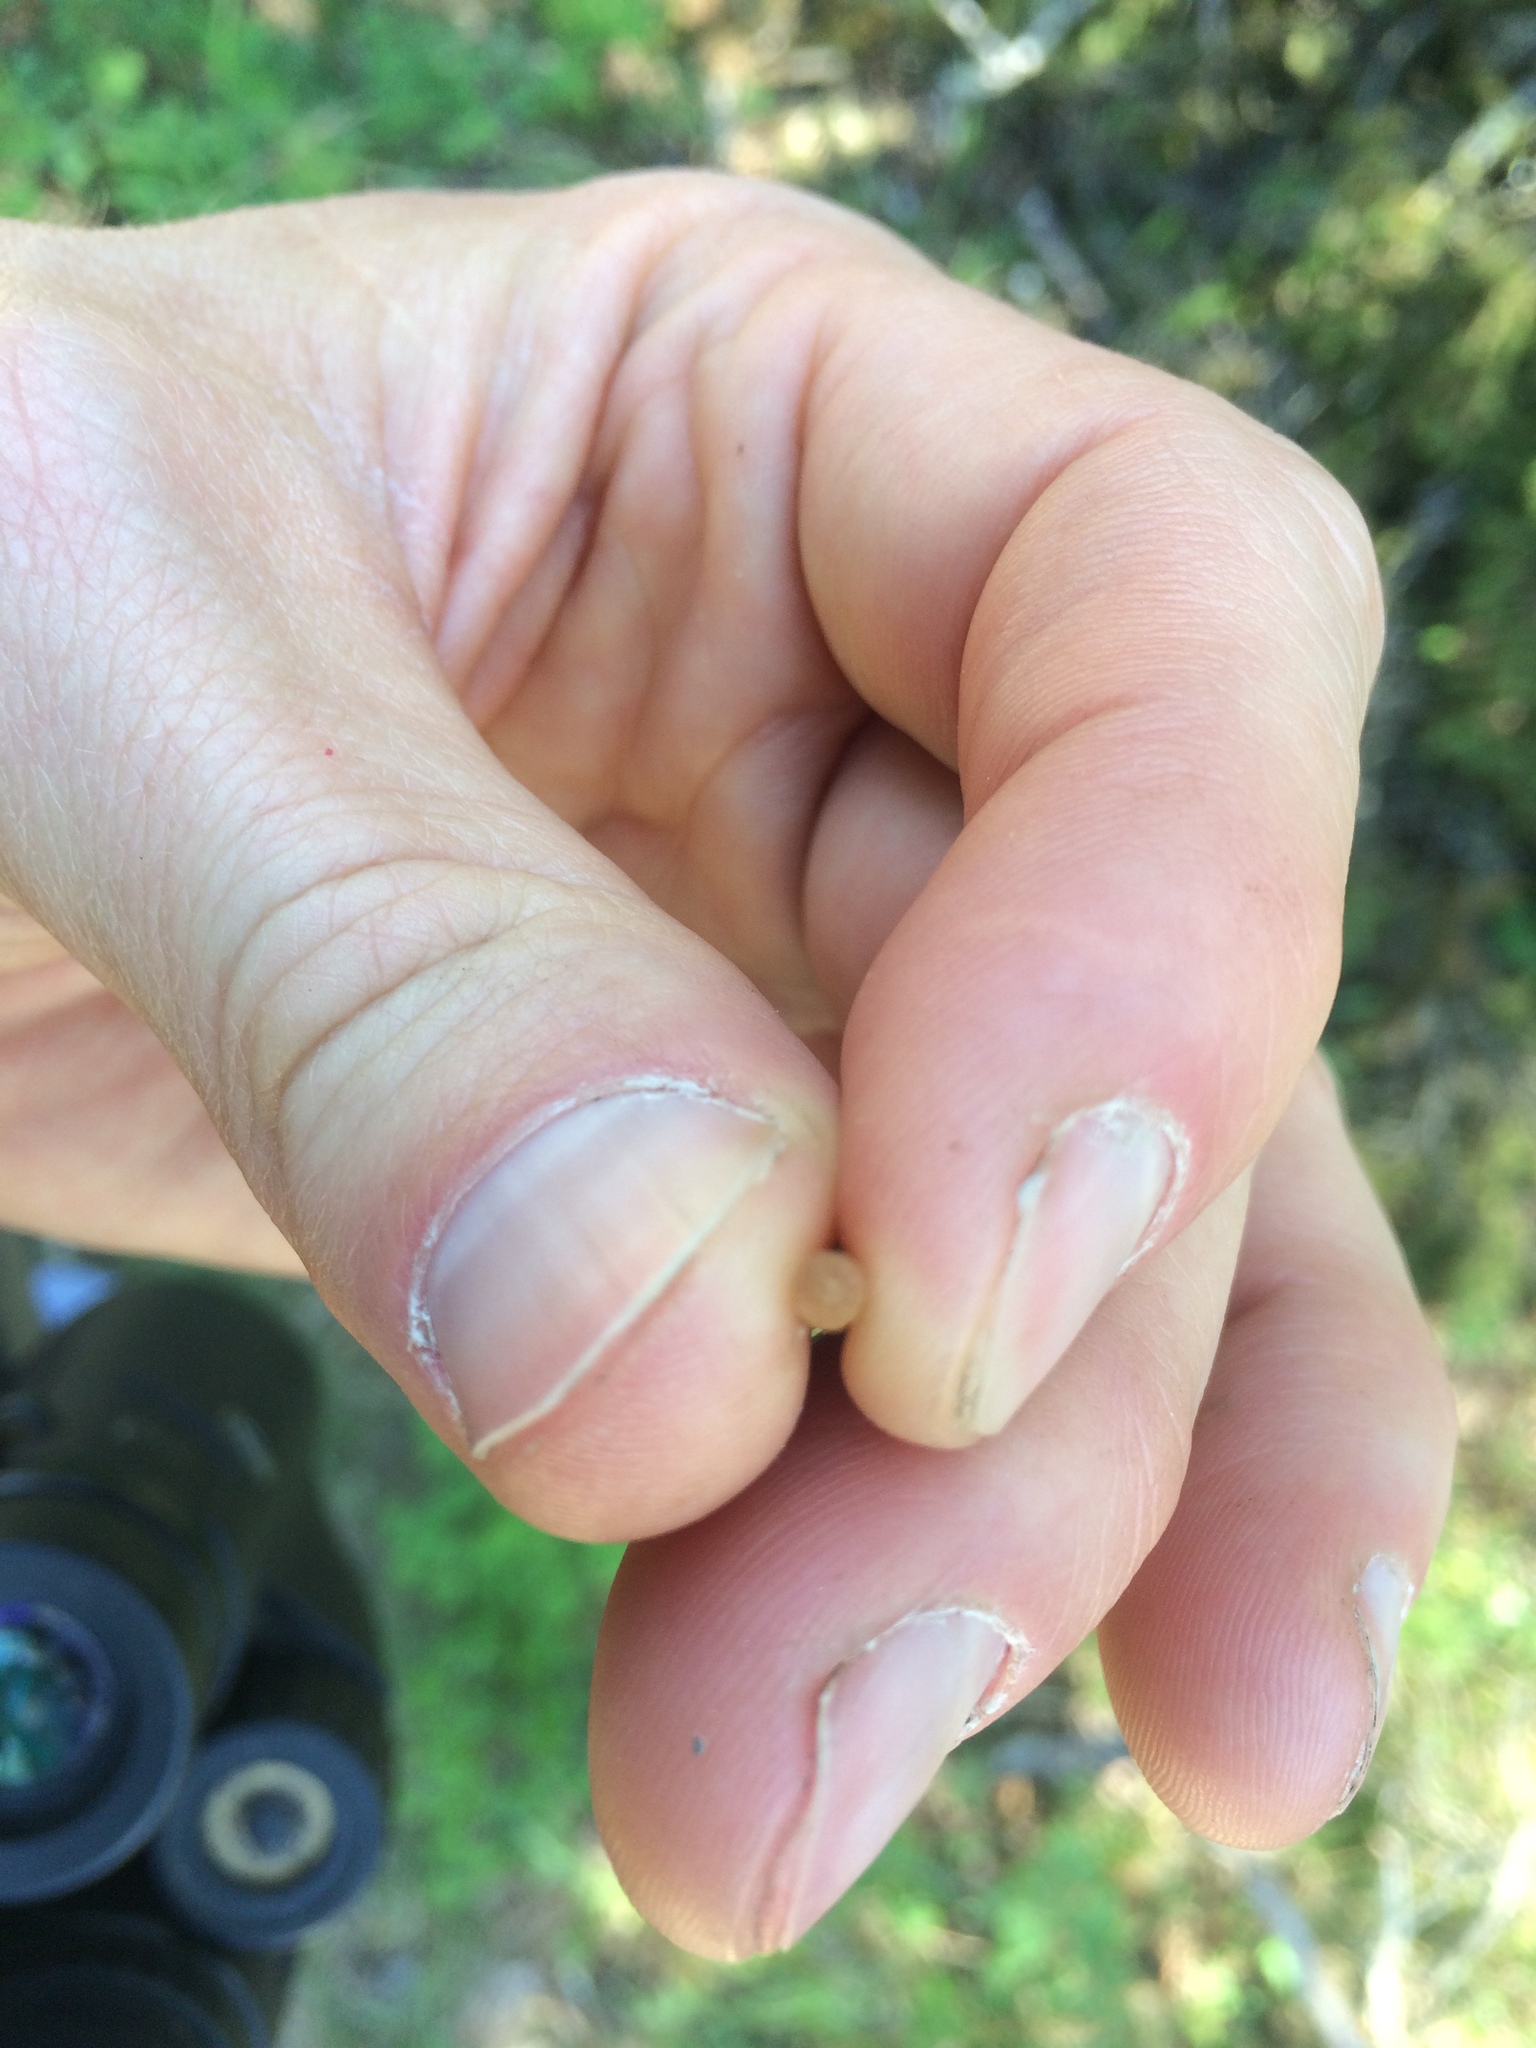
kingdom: Plantae
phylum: Tracheophyta
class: Polypodiopsida
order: Equisetales
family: Equisetaceae
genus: Equisetum
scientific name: Equisetum arvense
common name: Field horsetail
